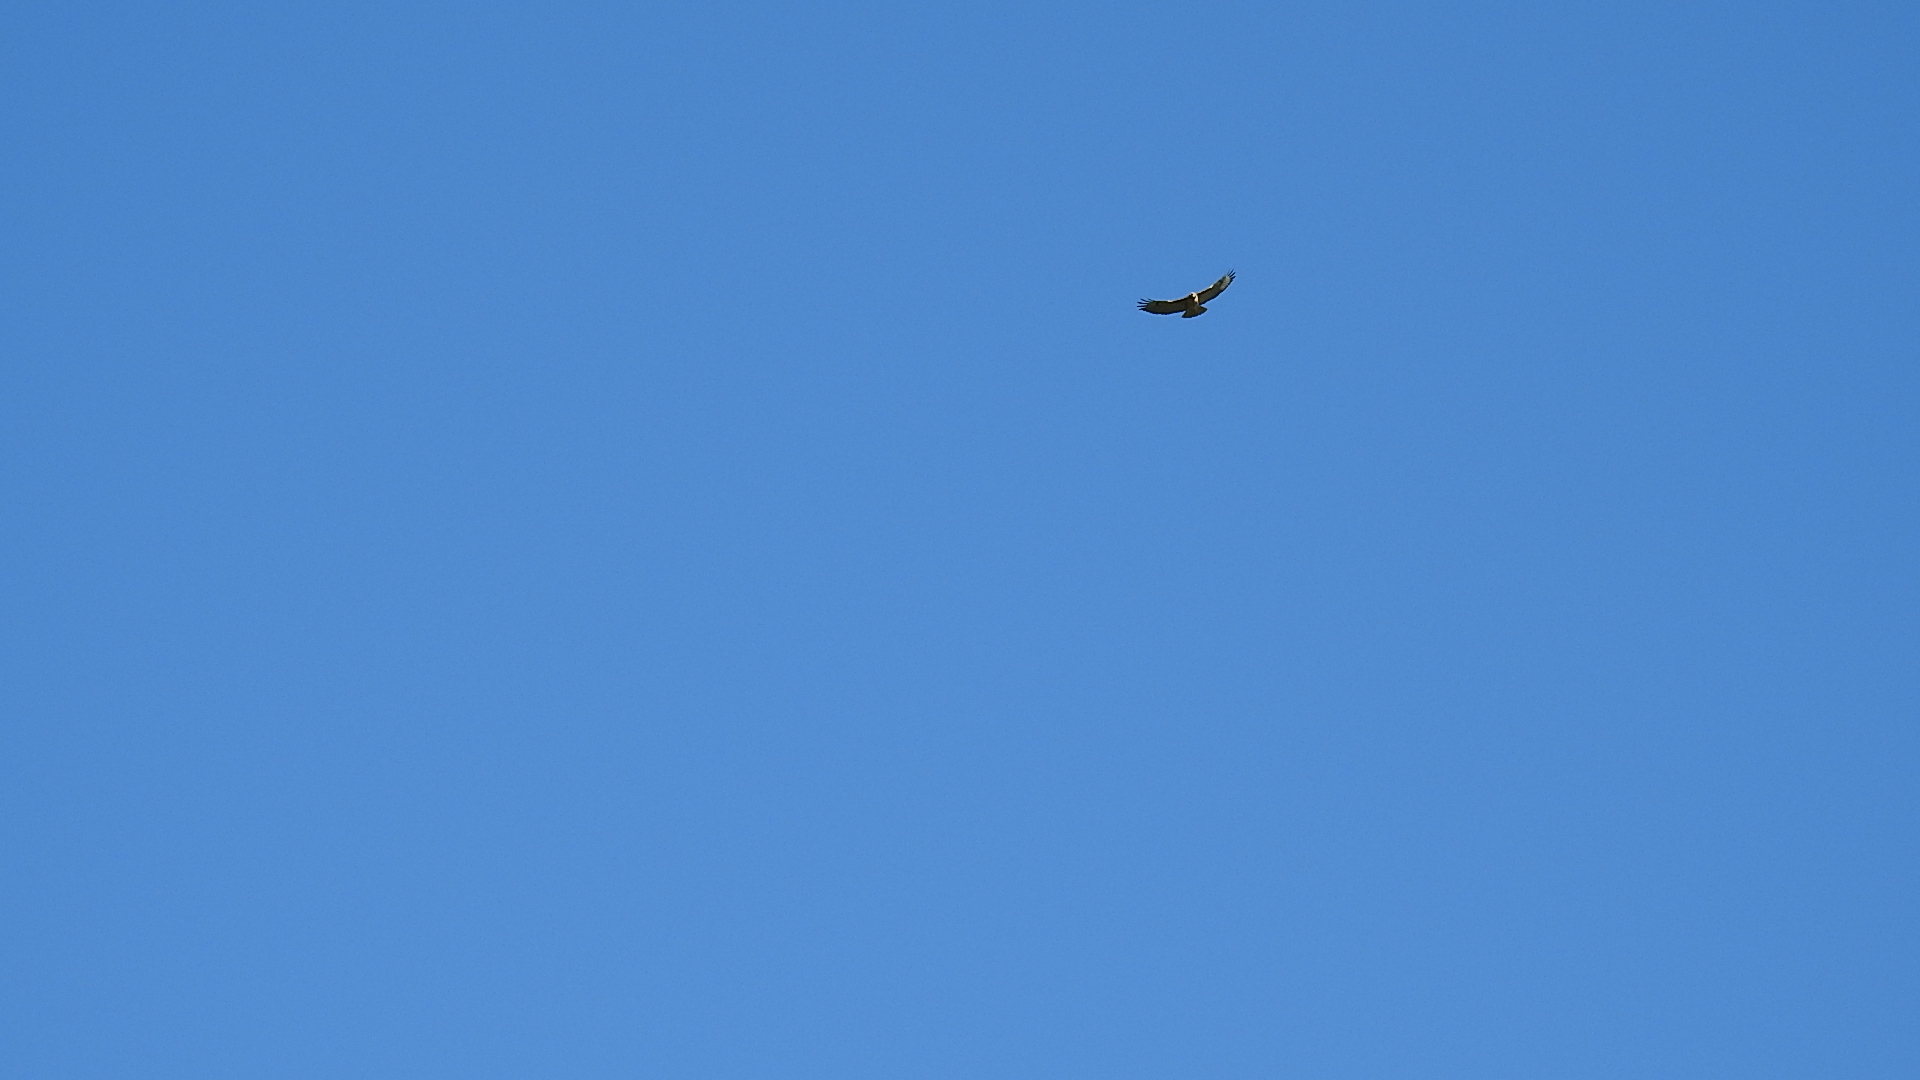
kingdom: Animalia
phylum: Chordata
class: Aves
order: Accipitriformes
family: Accipitridae
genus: Buteo
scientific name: Buteo jamaicensis
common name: Red-tailed hawk
